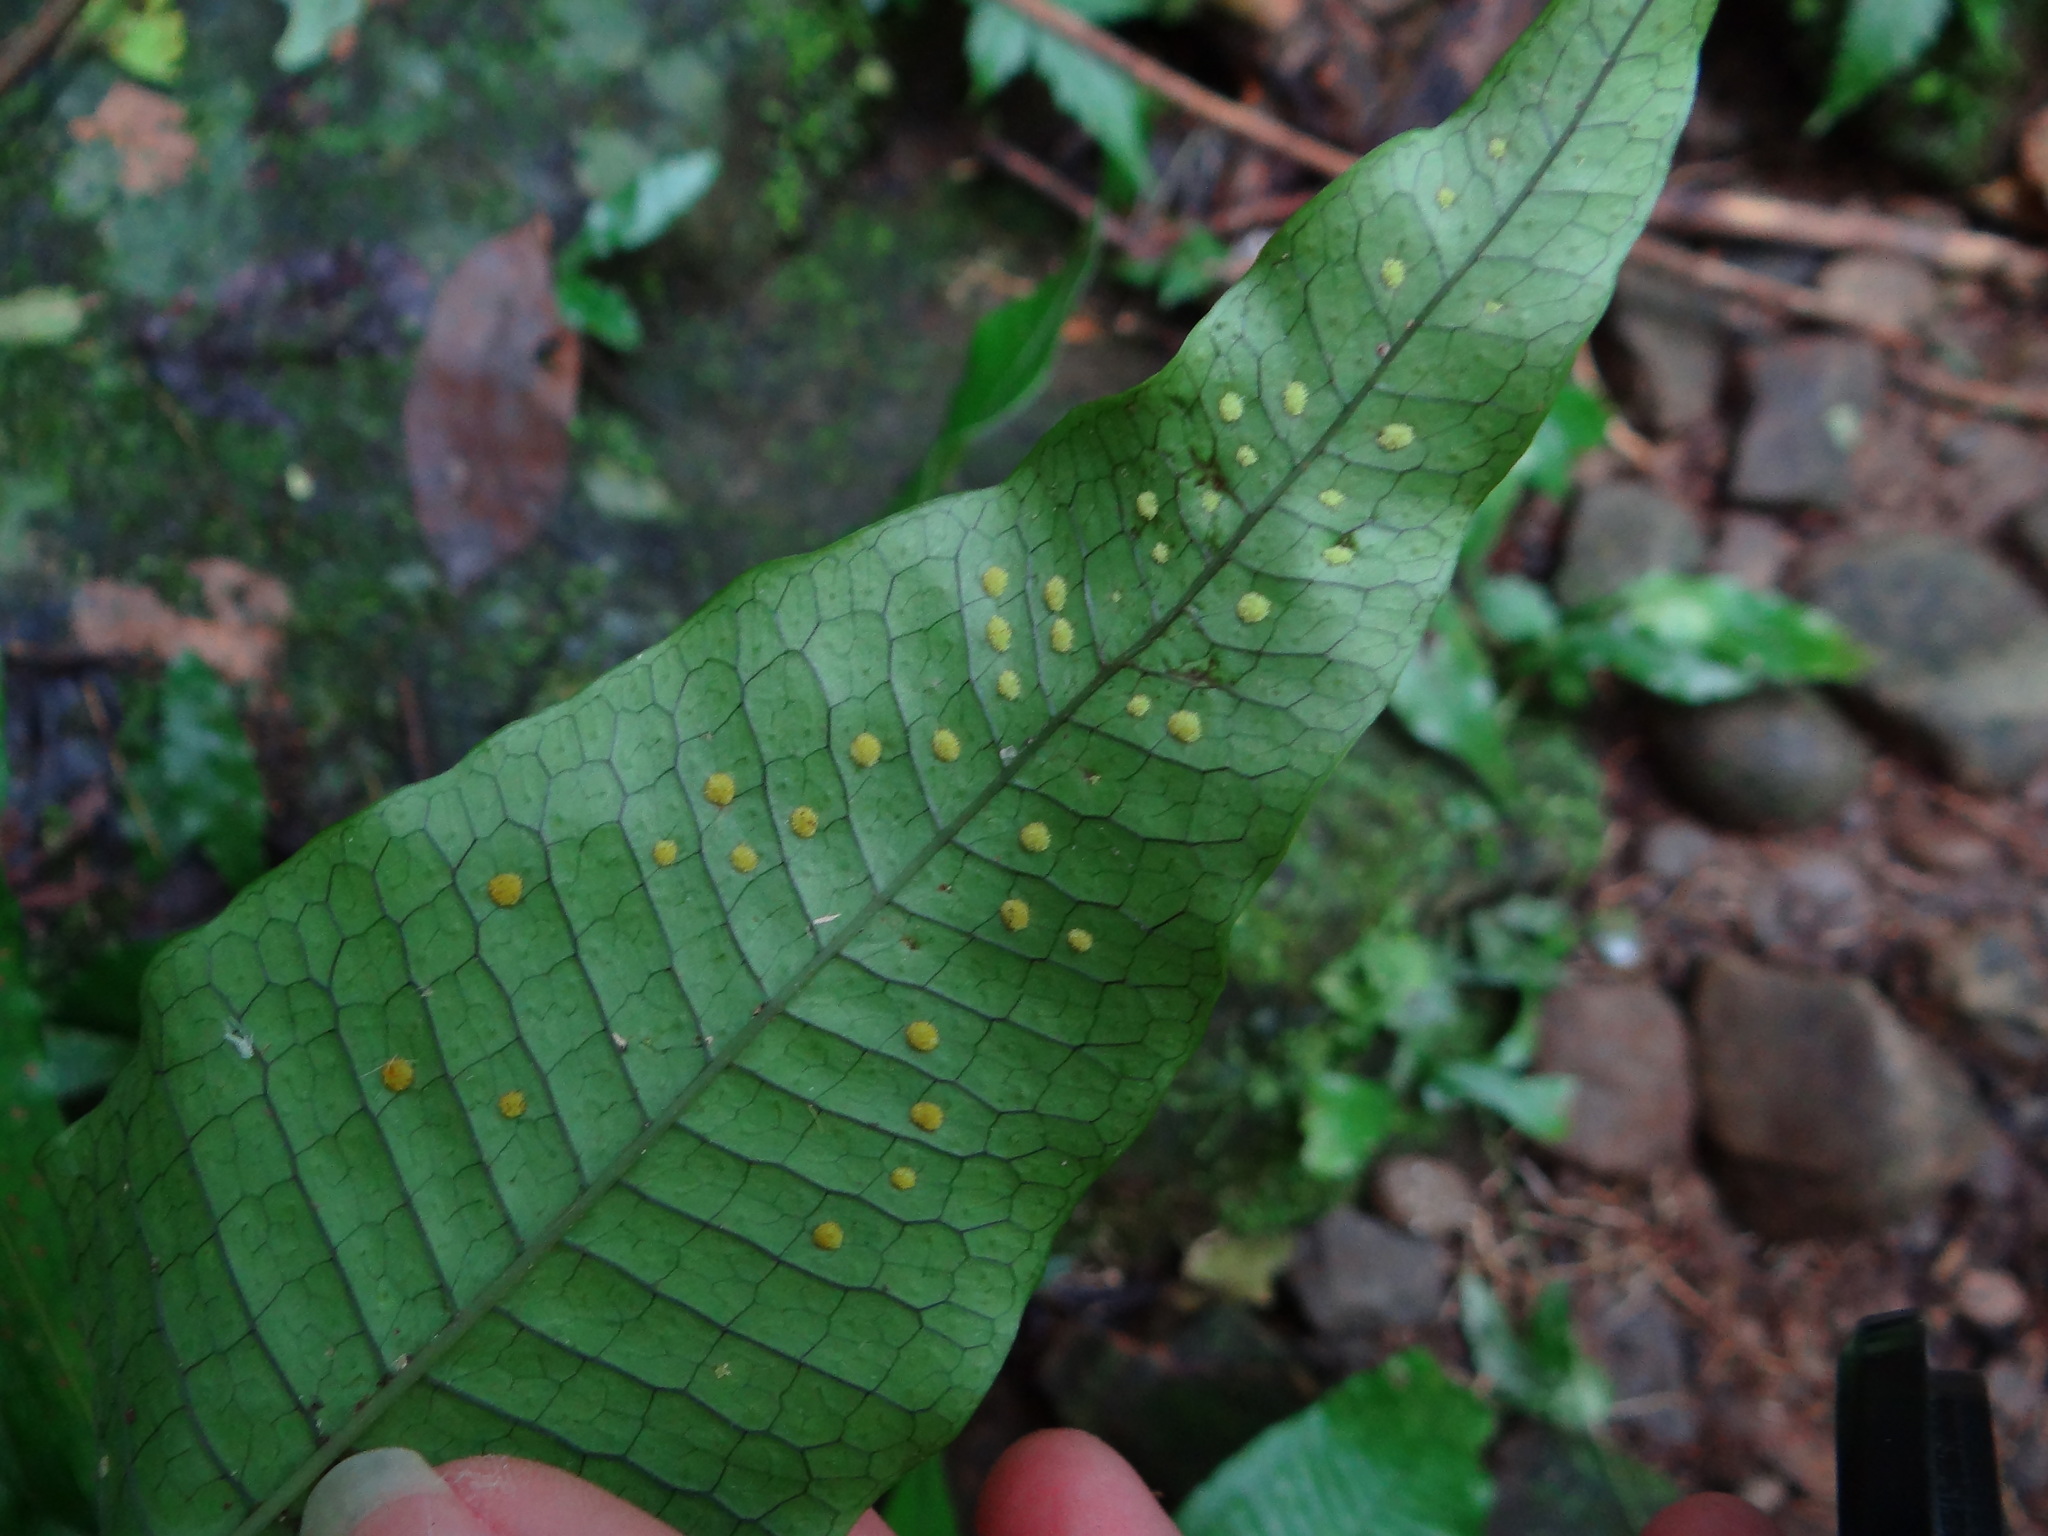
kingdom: Plantae
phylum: Tracheophyta
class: Polypodiopsida
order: Polypodiales
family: Polypodiaceae
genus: Leptochilus
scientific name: Leptochilus hemionitideus
